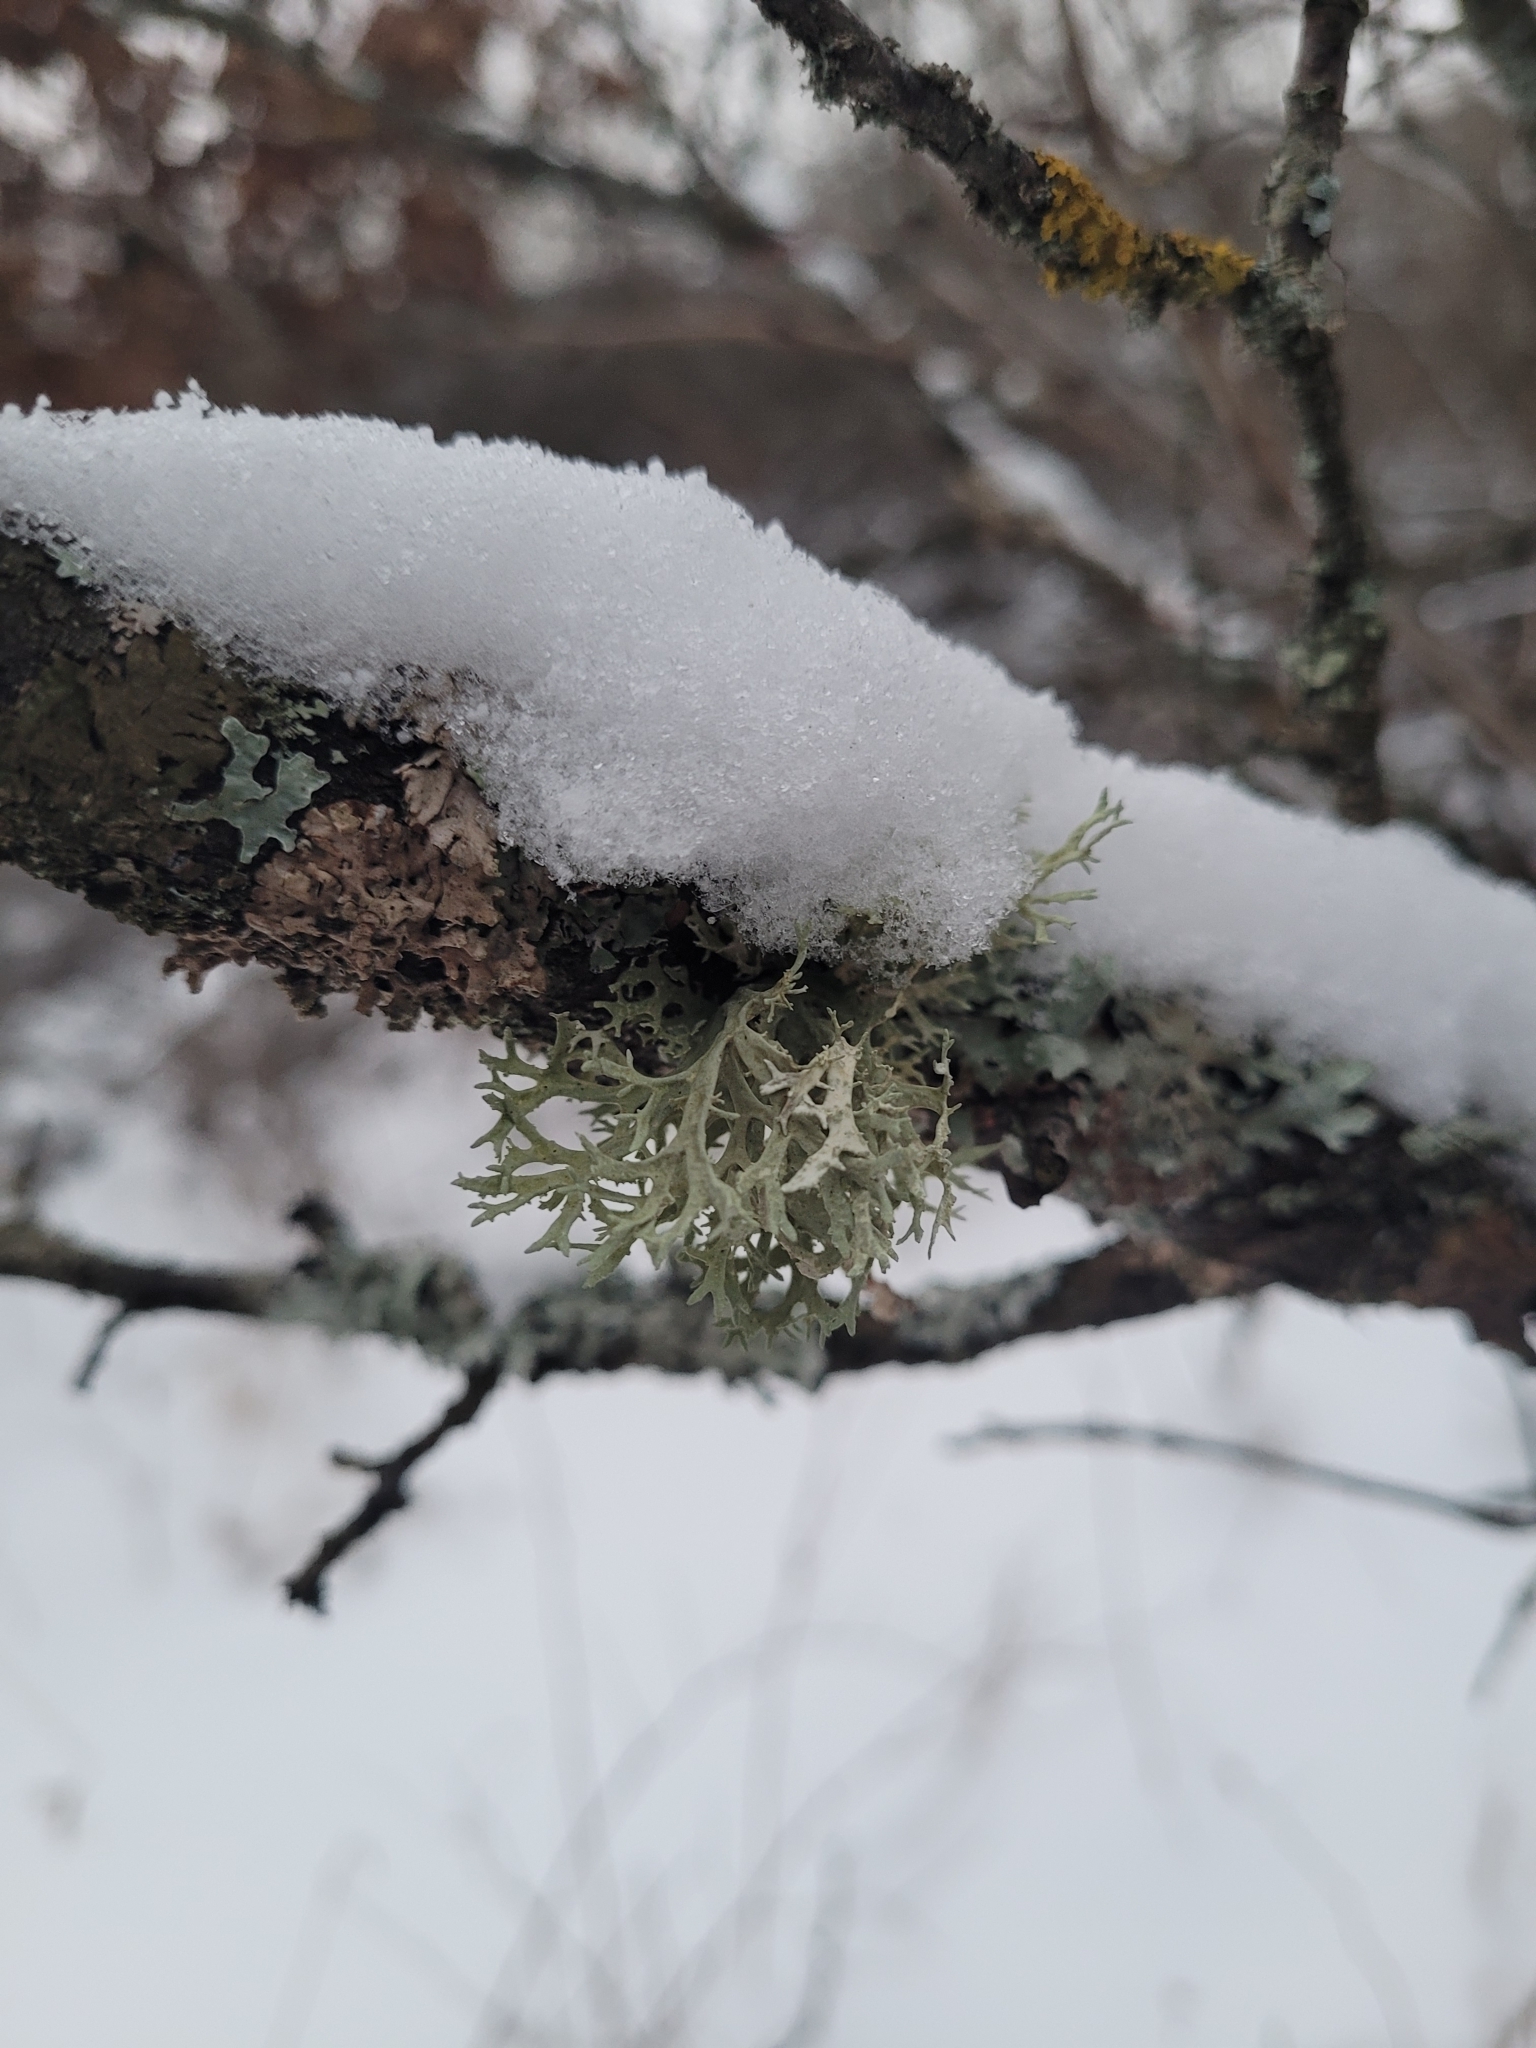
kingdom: Fungi
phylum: Ascomycota
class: Lecanoromycetes
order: Lecanorales
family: Parmeliaceae
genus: Evernia
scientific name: Evernia prunastri
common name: Oak moss
